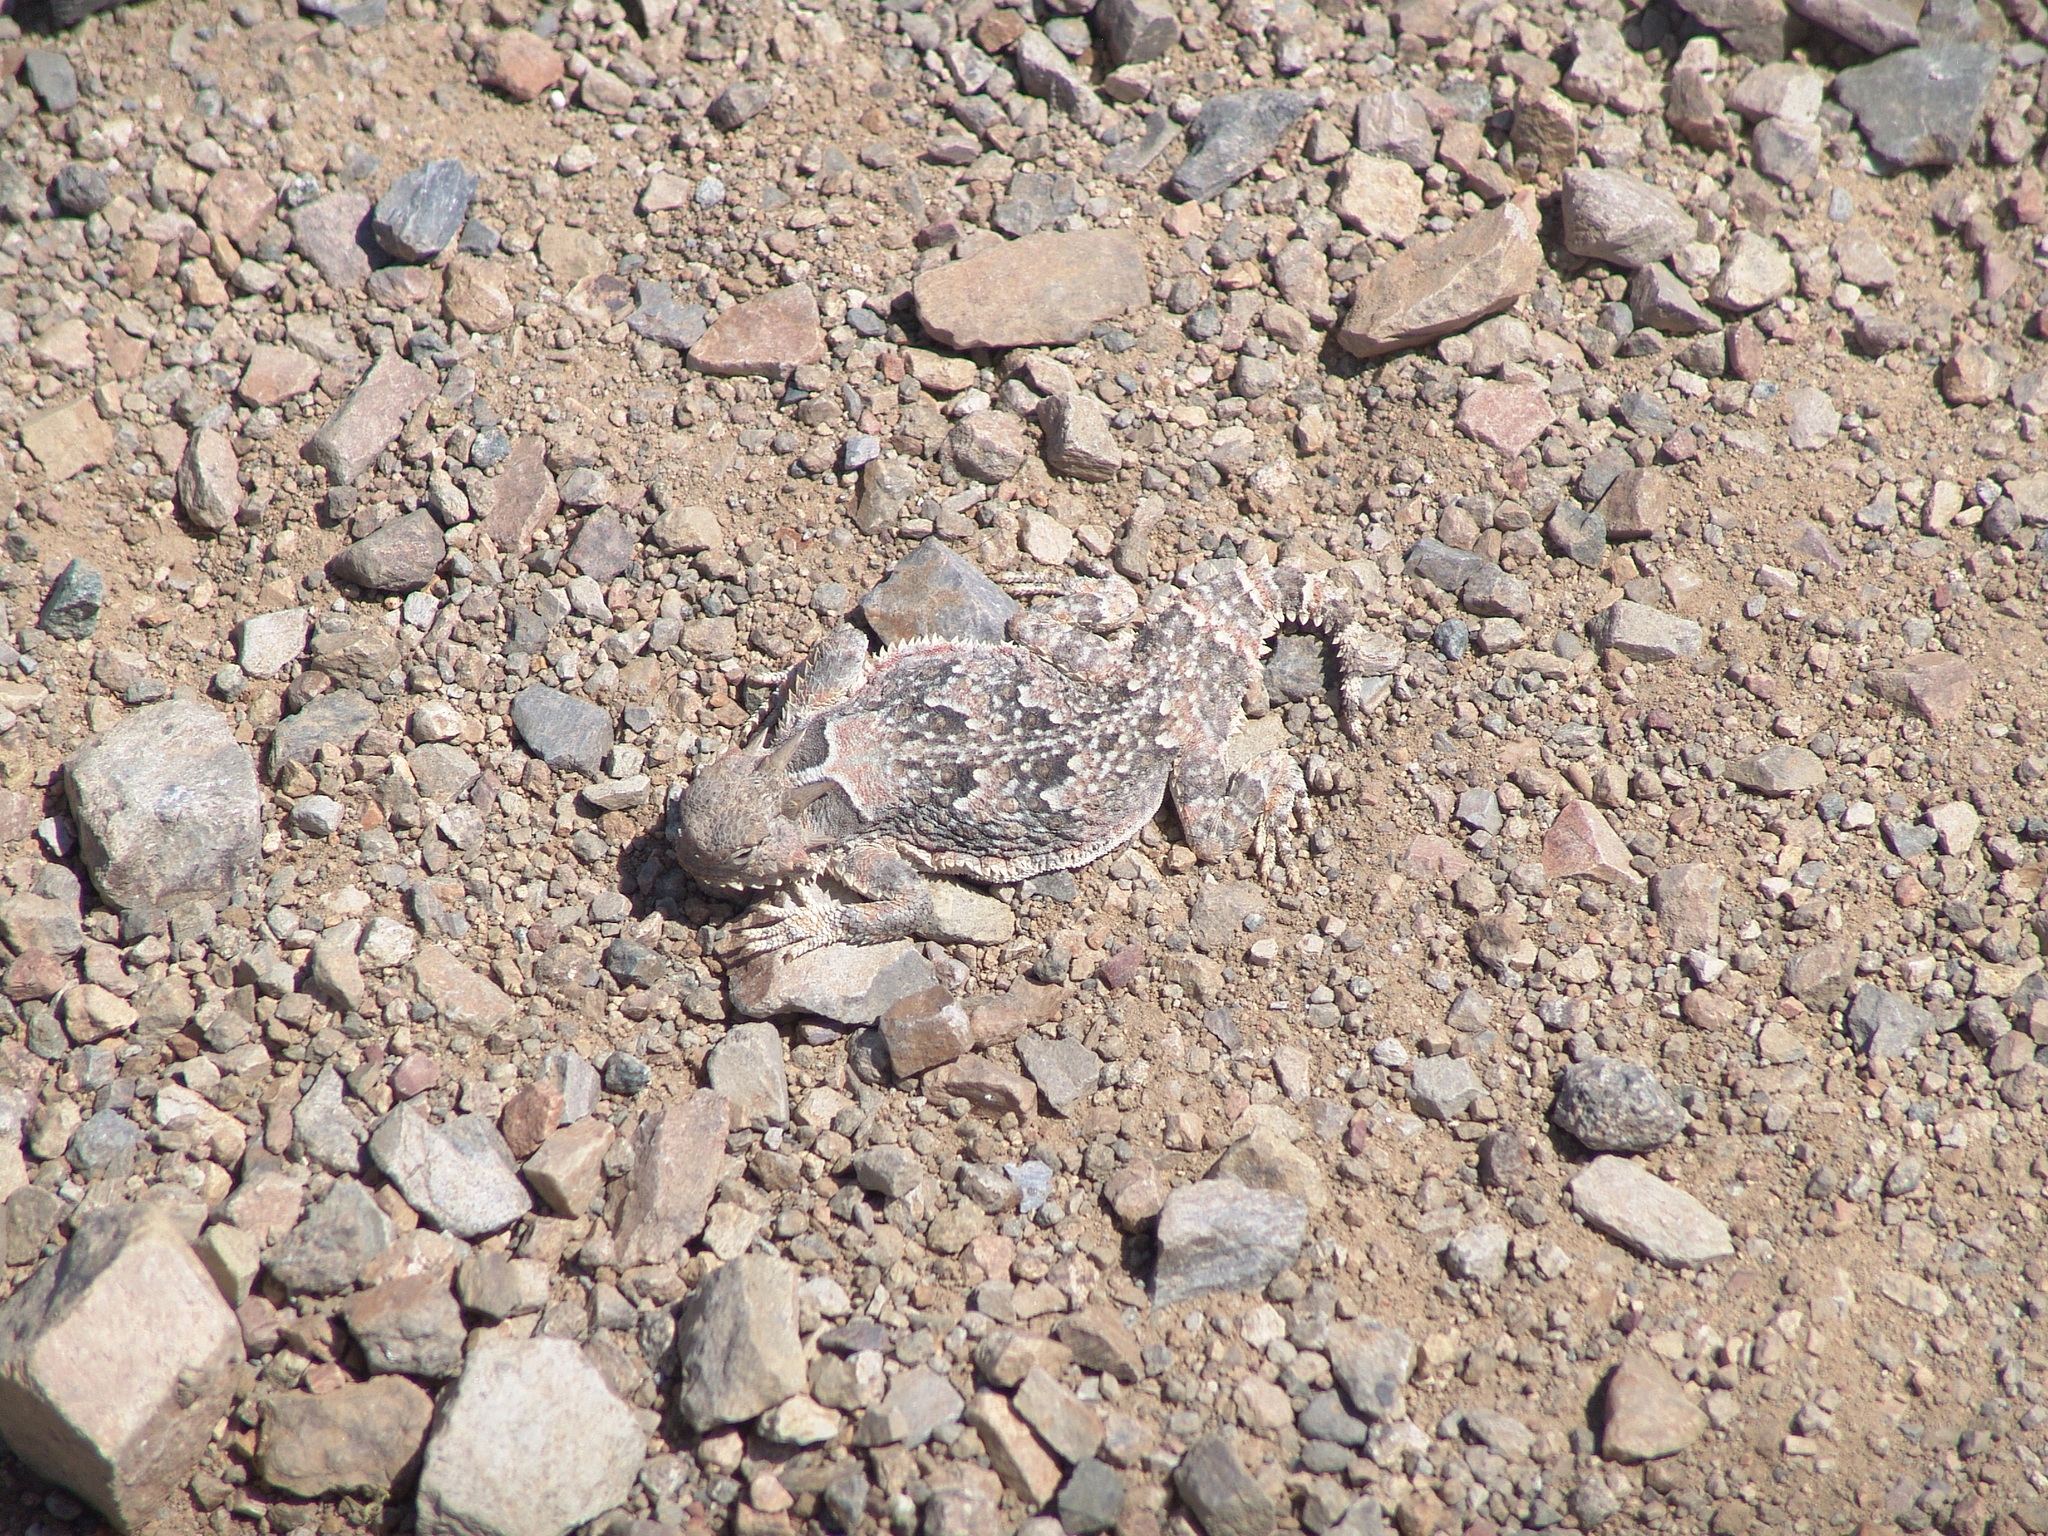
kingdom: Animalia
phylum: Chordata
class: Squamata
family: Phrynosomatidae
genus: Phrynosoma
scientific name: Phrynosoma platyrhinos
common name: Desert horned lizard
